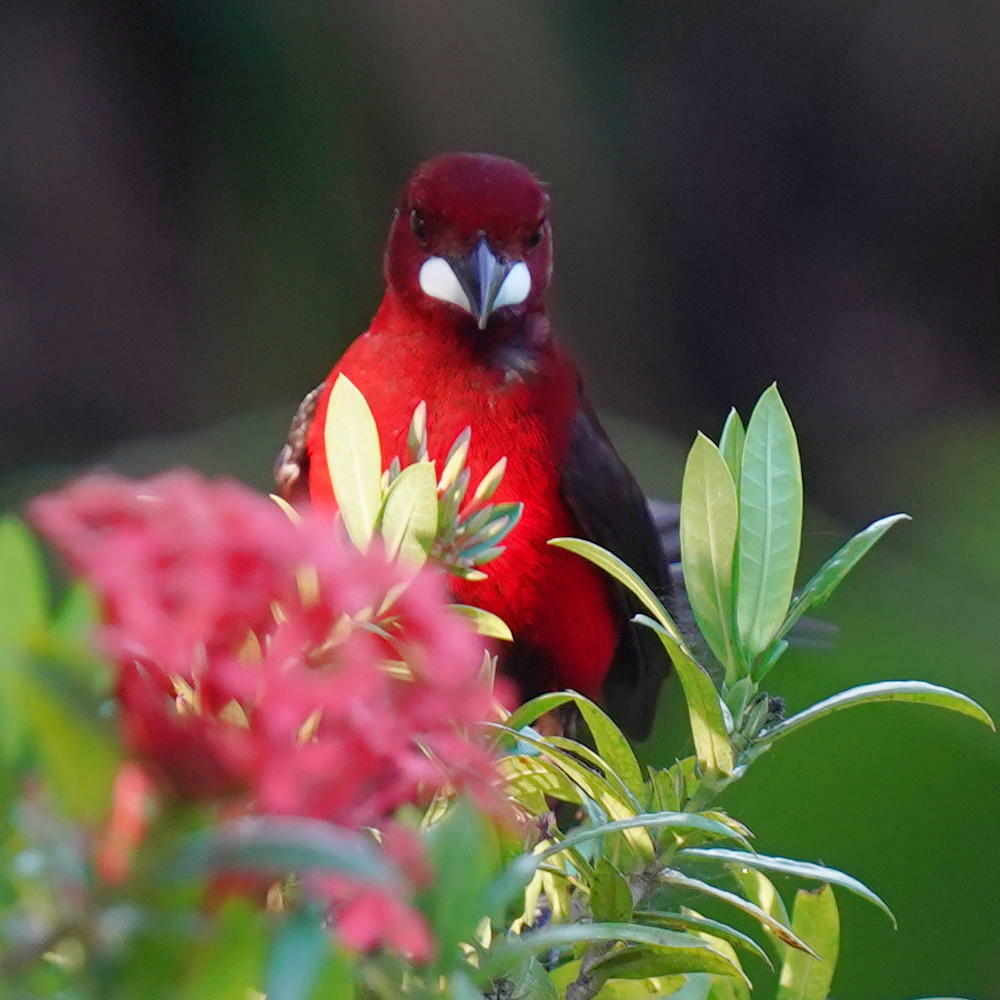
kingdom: Animalia
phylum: Chordata
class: Aves
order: Passeriformes
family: Thraupidae
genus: Ramphocelus
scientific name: Ramphocelus dimidiatus
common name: Crimson-backed tanager
